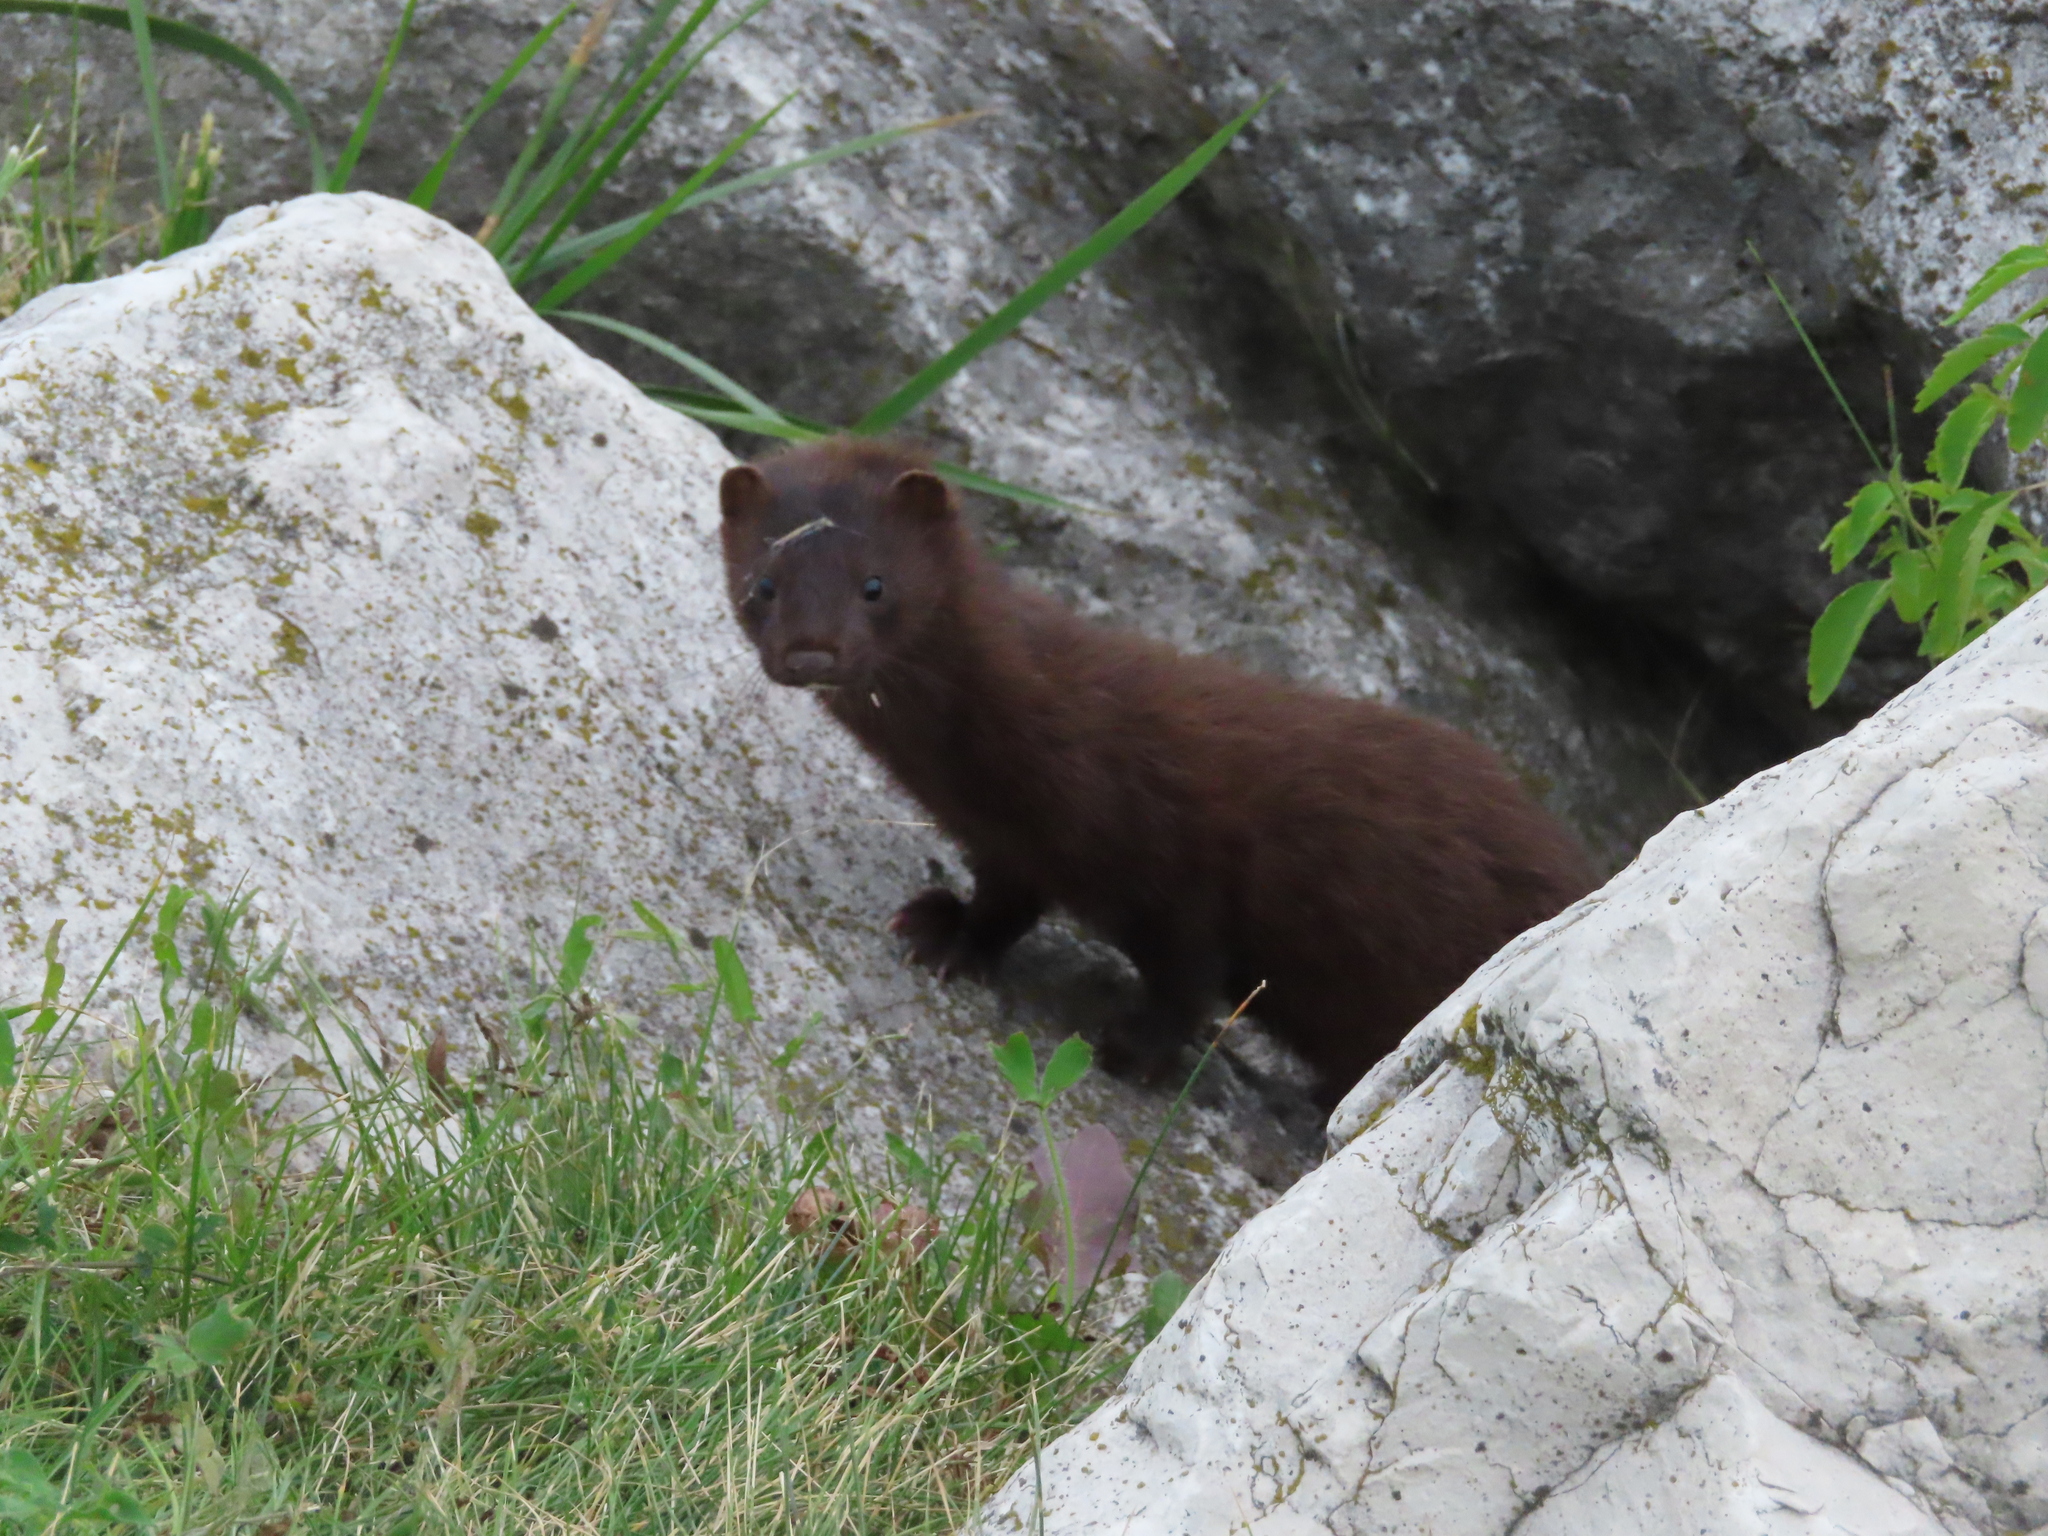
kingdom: Animalia
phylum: Chordata
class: Mammalia
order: Carnivora
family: Mustelidae
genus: Mustela
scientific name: Mustela
